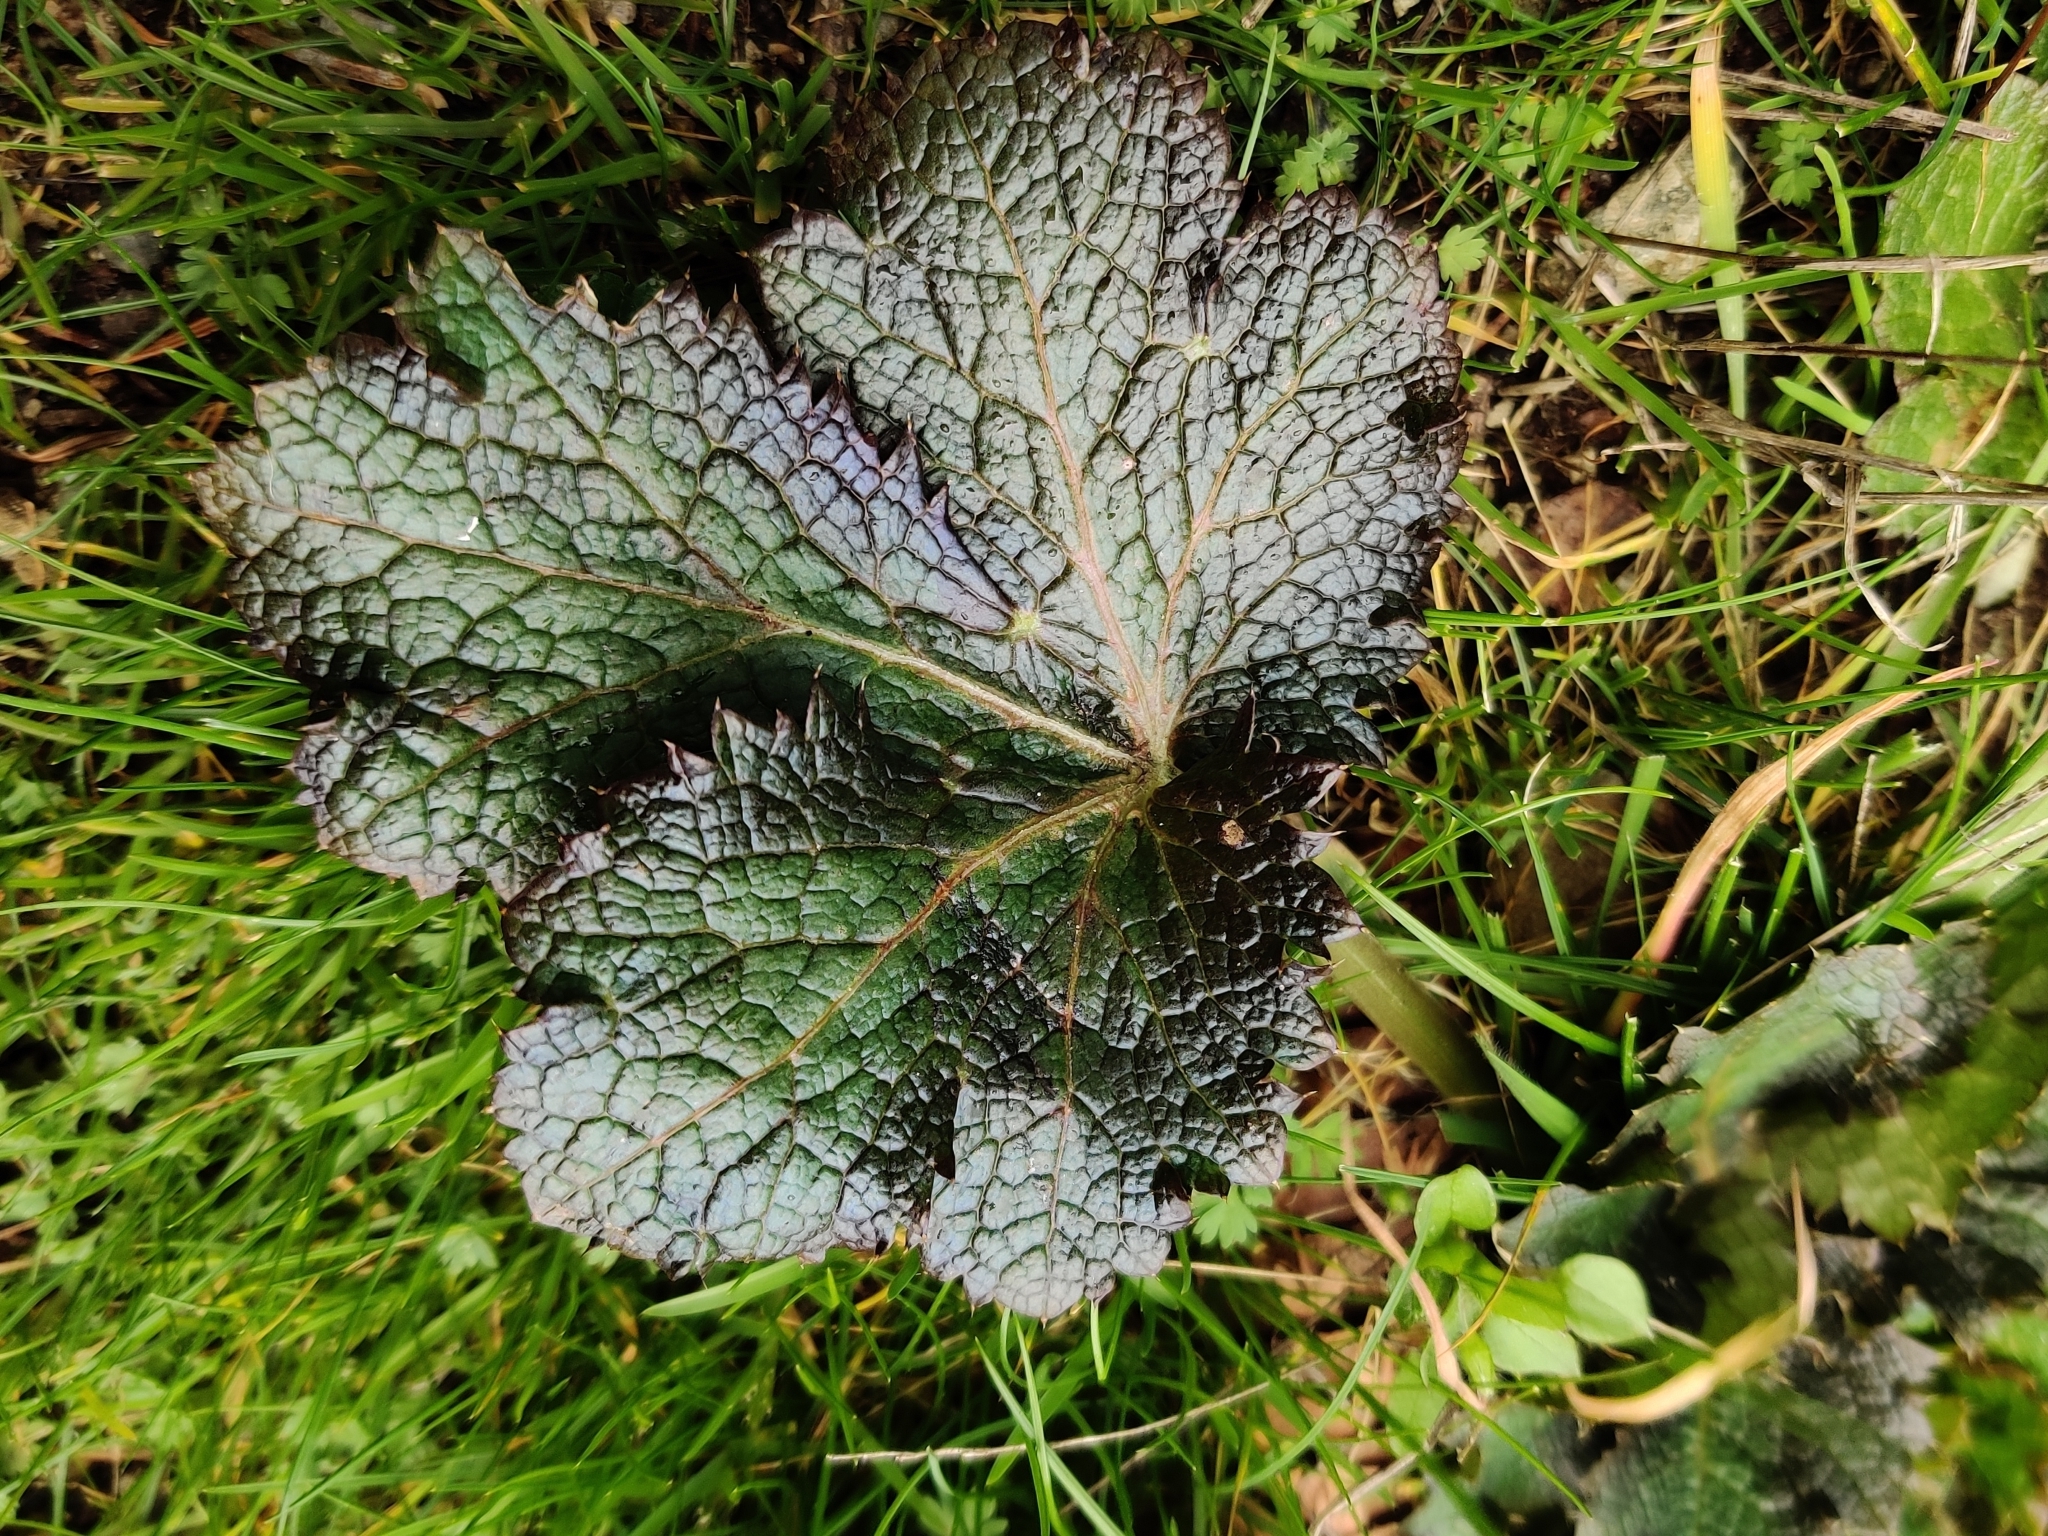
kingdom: Plantae
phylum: Tracheophyta
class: Magnoliopsida
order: Apiales
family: Apiaceae
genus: Sanicula
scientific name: Sanicula crassicaulis
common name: Western snakeroot
